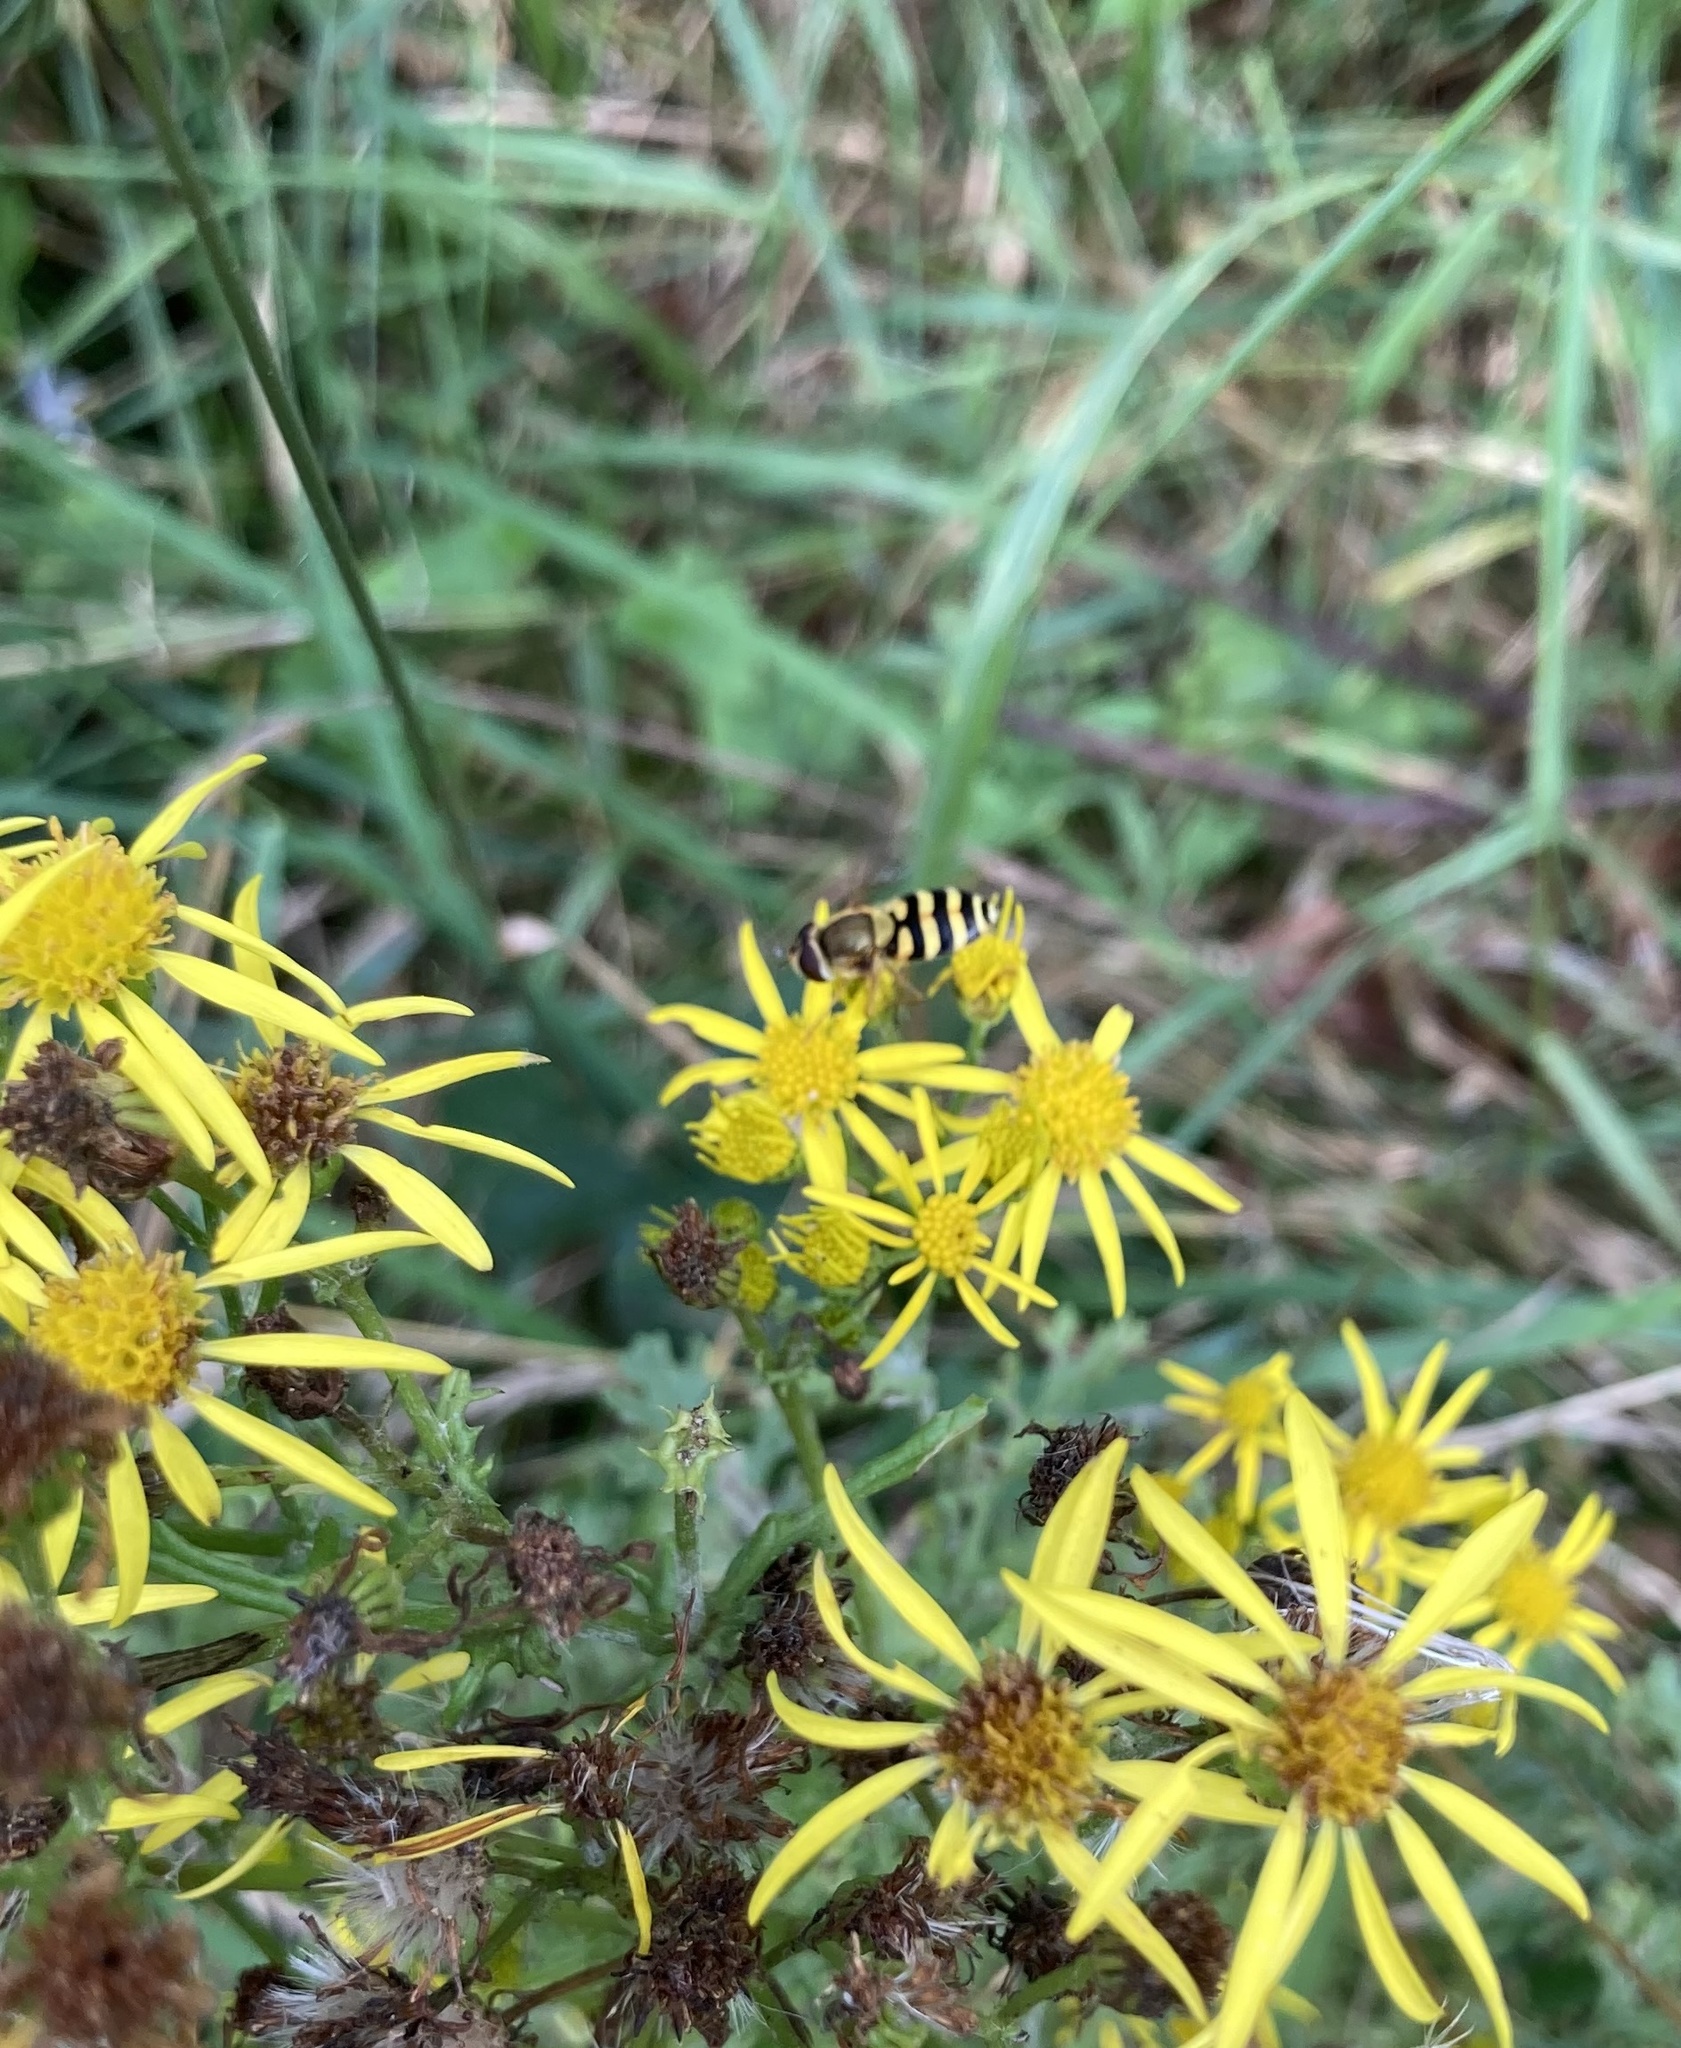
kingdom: Animalia
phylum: Arthropoda
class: Insecta
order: Diptera
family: Syrphidae
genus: Syrphus
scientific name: Syrphus
